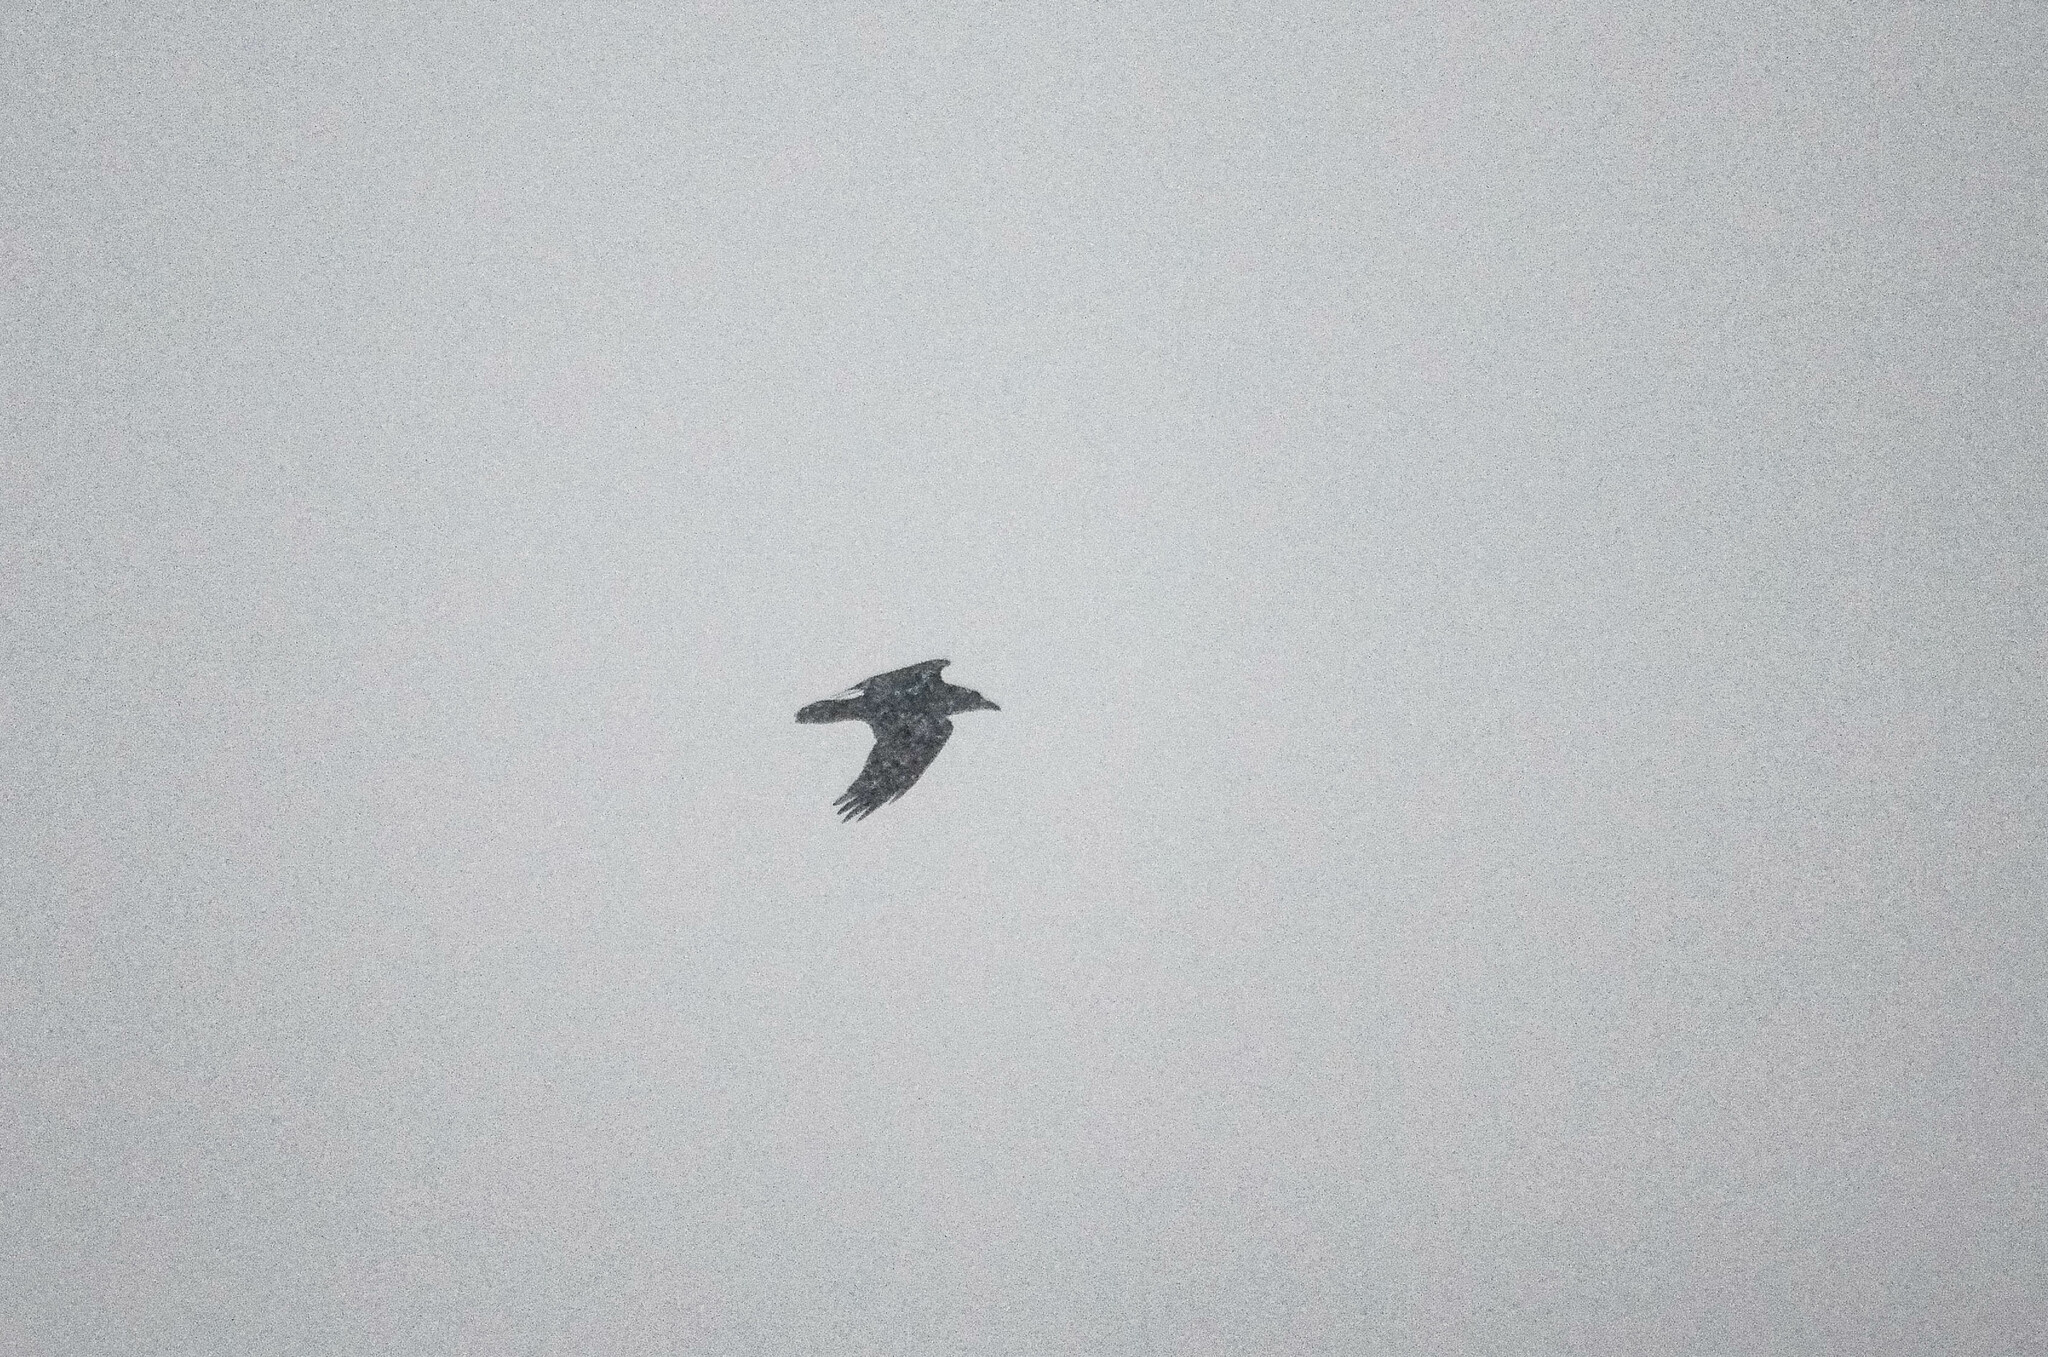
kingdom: Animalia
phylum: Chordata
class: Aves
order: Passeriformes
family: Corvidae
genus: Corvus
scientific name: Corvus corax
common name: Common raven
